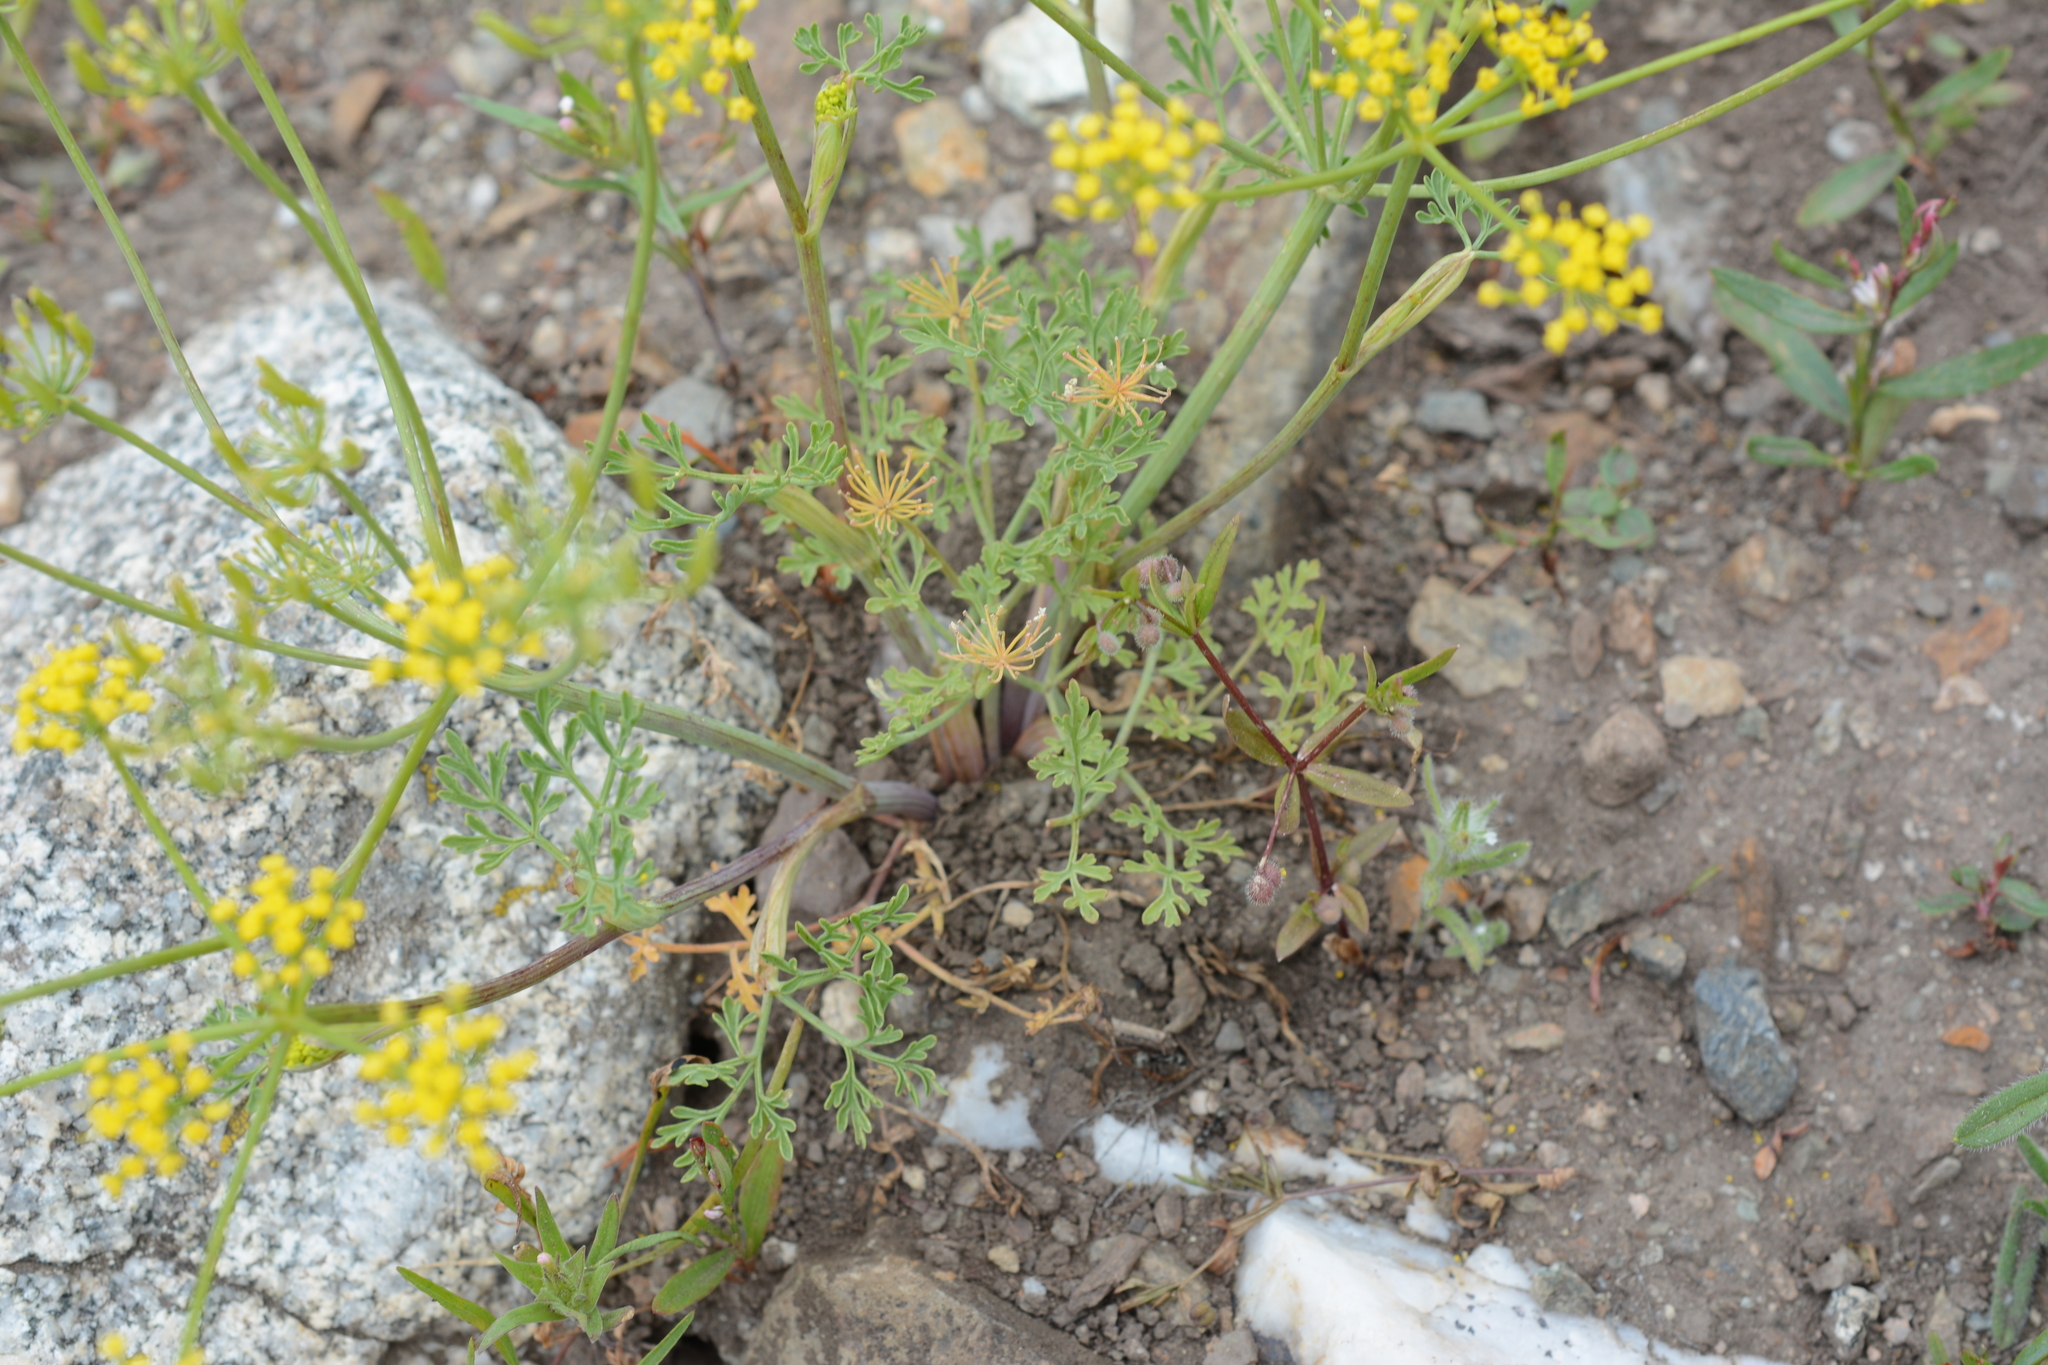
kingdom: Plantae
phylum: Tracheophyta
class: Magnoliopsida
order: Apiales
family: Apiaceae
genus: Lomatium
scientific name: Lomatium ambiguum
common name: Lacy lomatium
